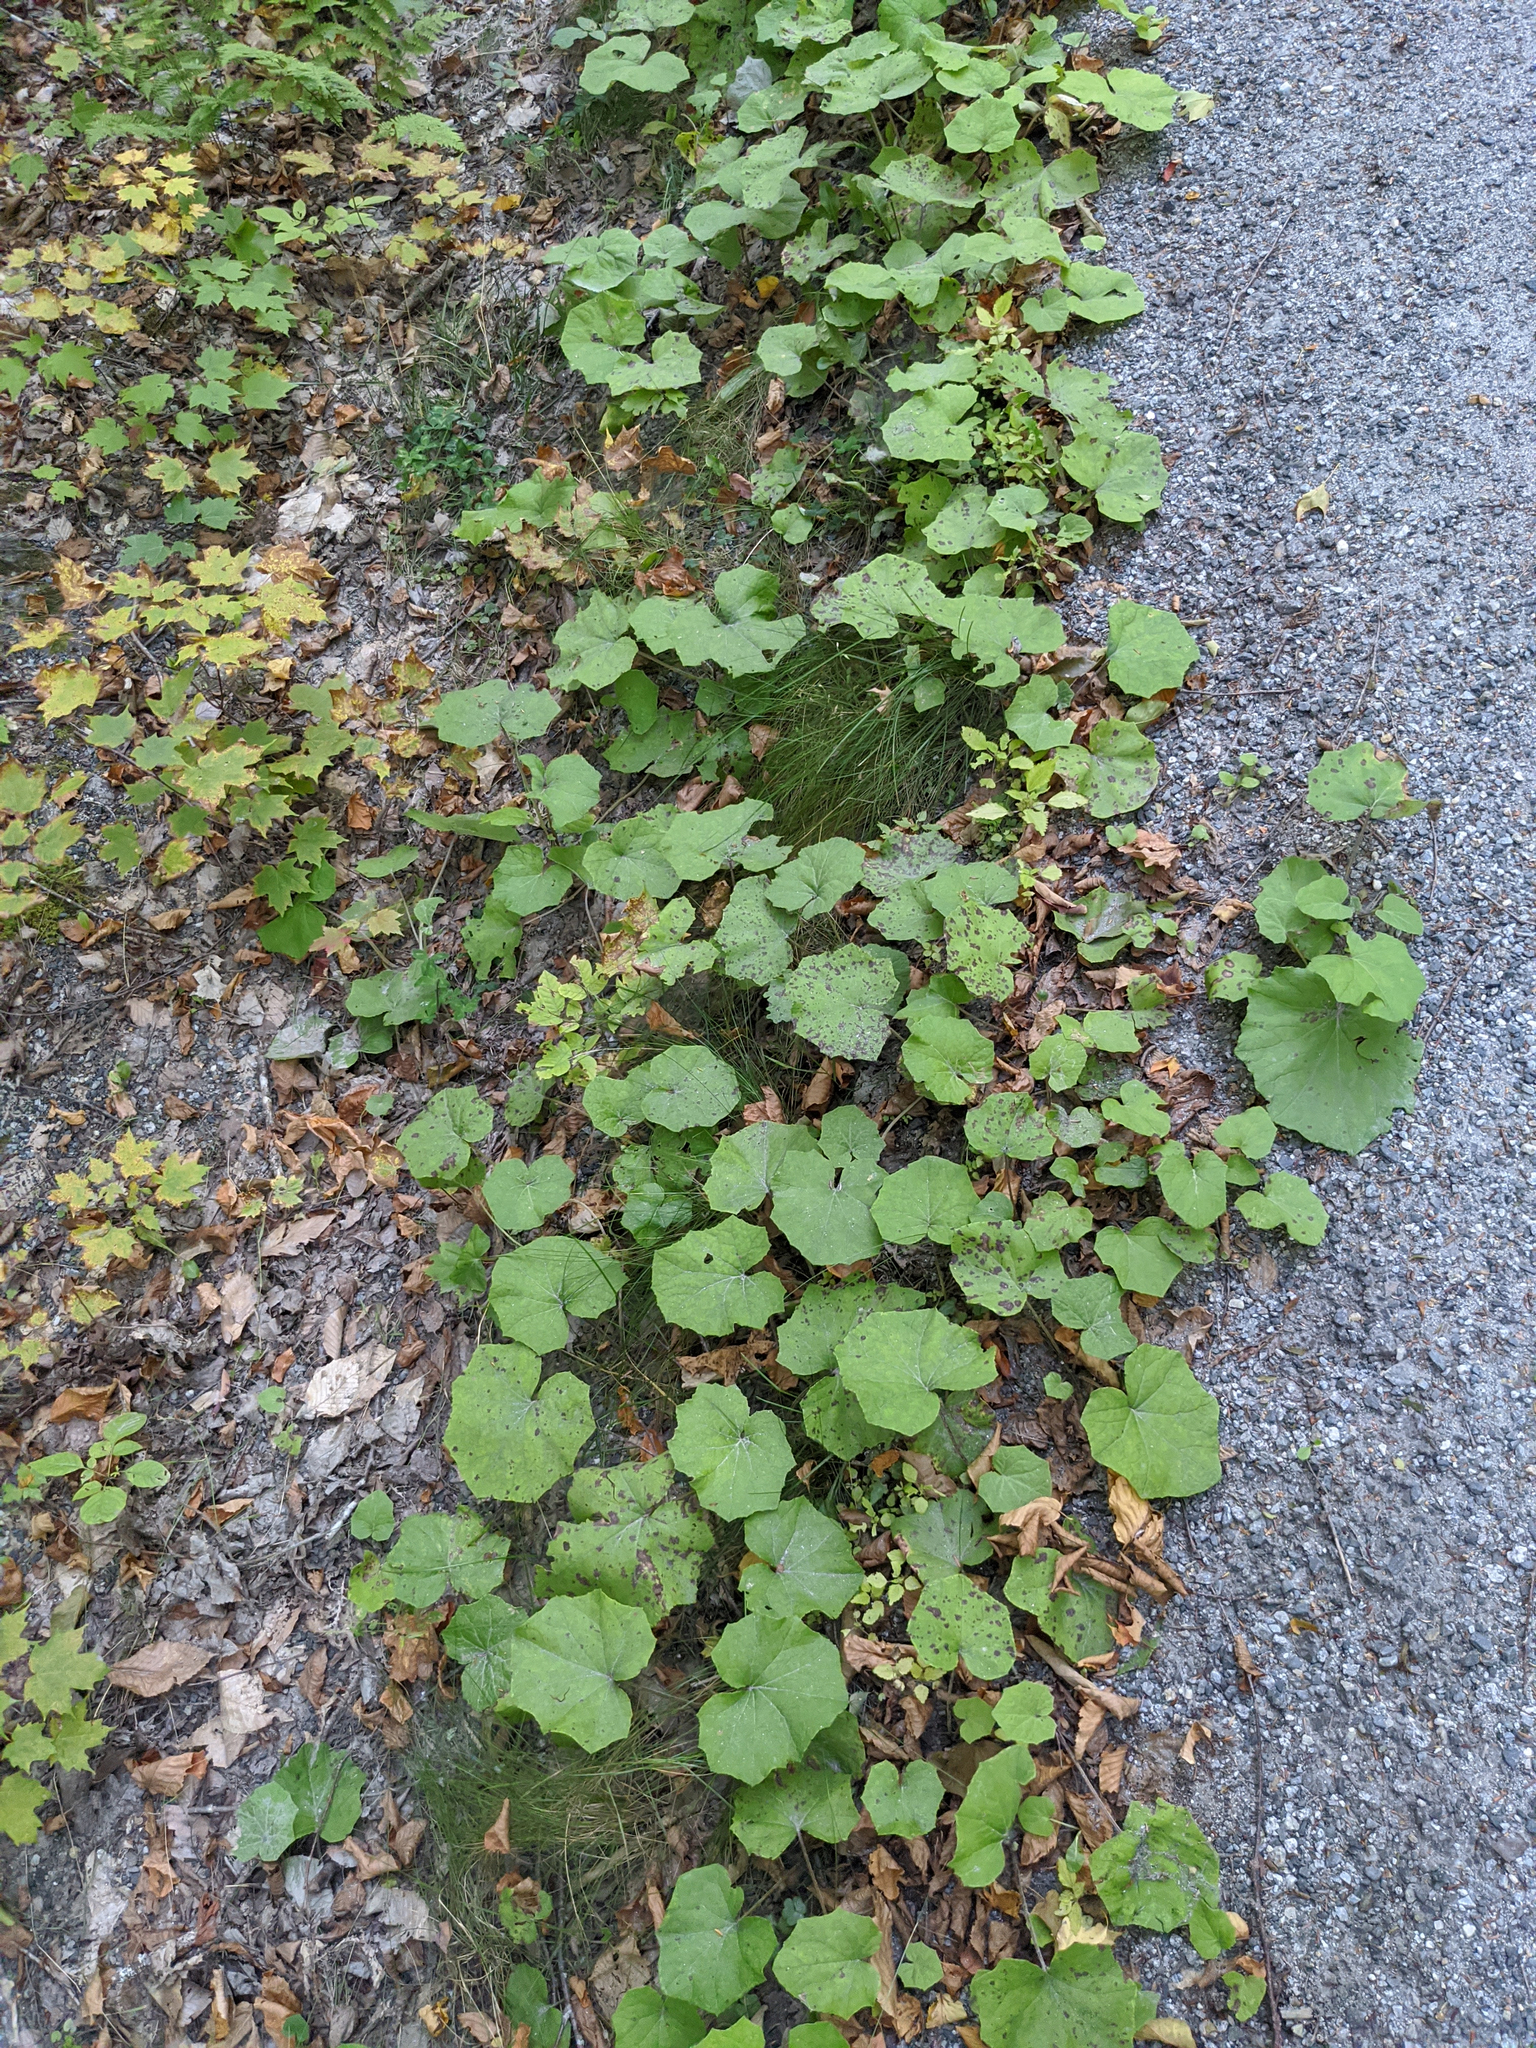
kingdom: Plantae
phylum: Tracheophyta
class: Magnoliopsida
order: Asterales
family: Asteraceae
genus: Tussilago
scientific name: Tussilago farfara
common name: Coltsfoot
